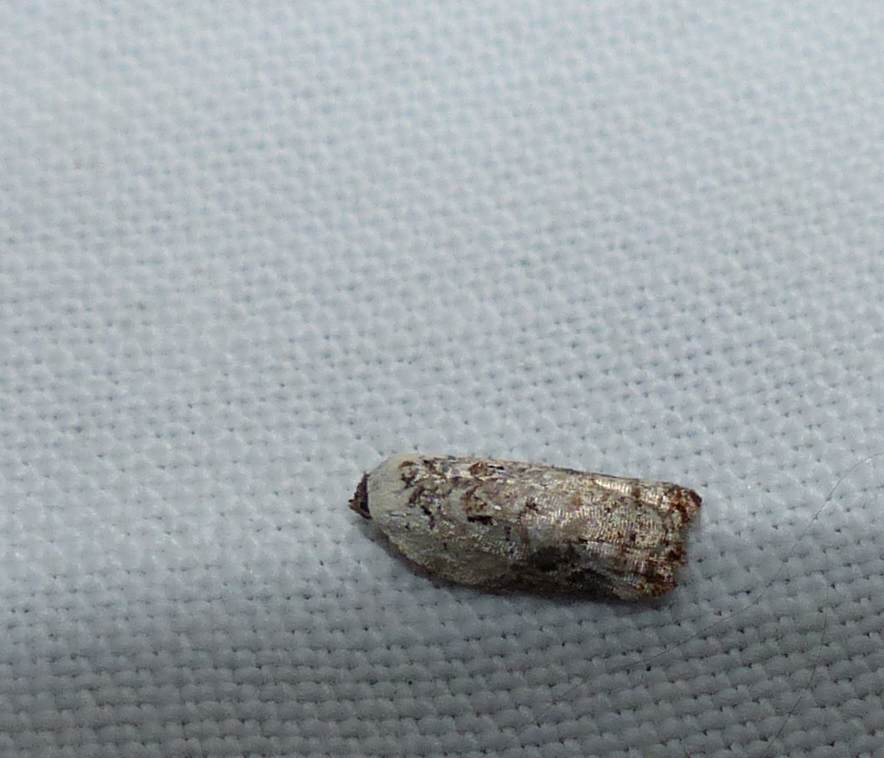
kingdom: Animalia
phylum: Arthropoda
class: Insecta
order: Lepidoptera
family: Tortricidae
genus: Acleris
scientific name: Acleris nivisellana
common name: Snowy-shouldered acleris moth
